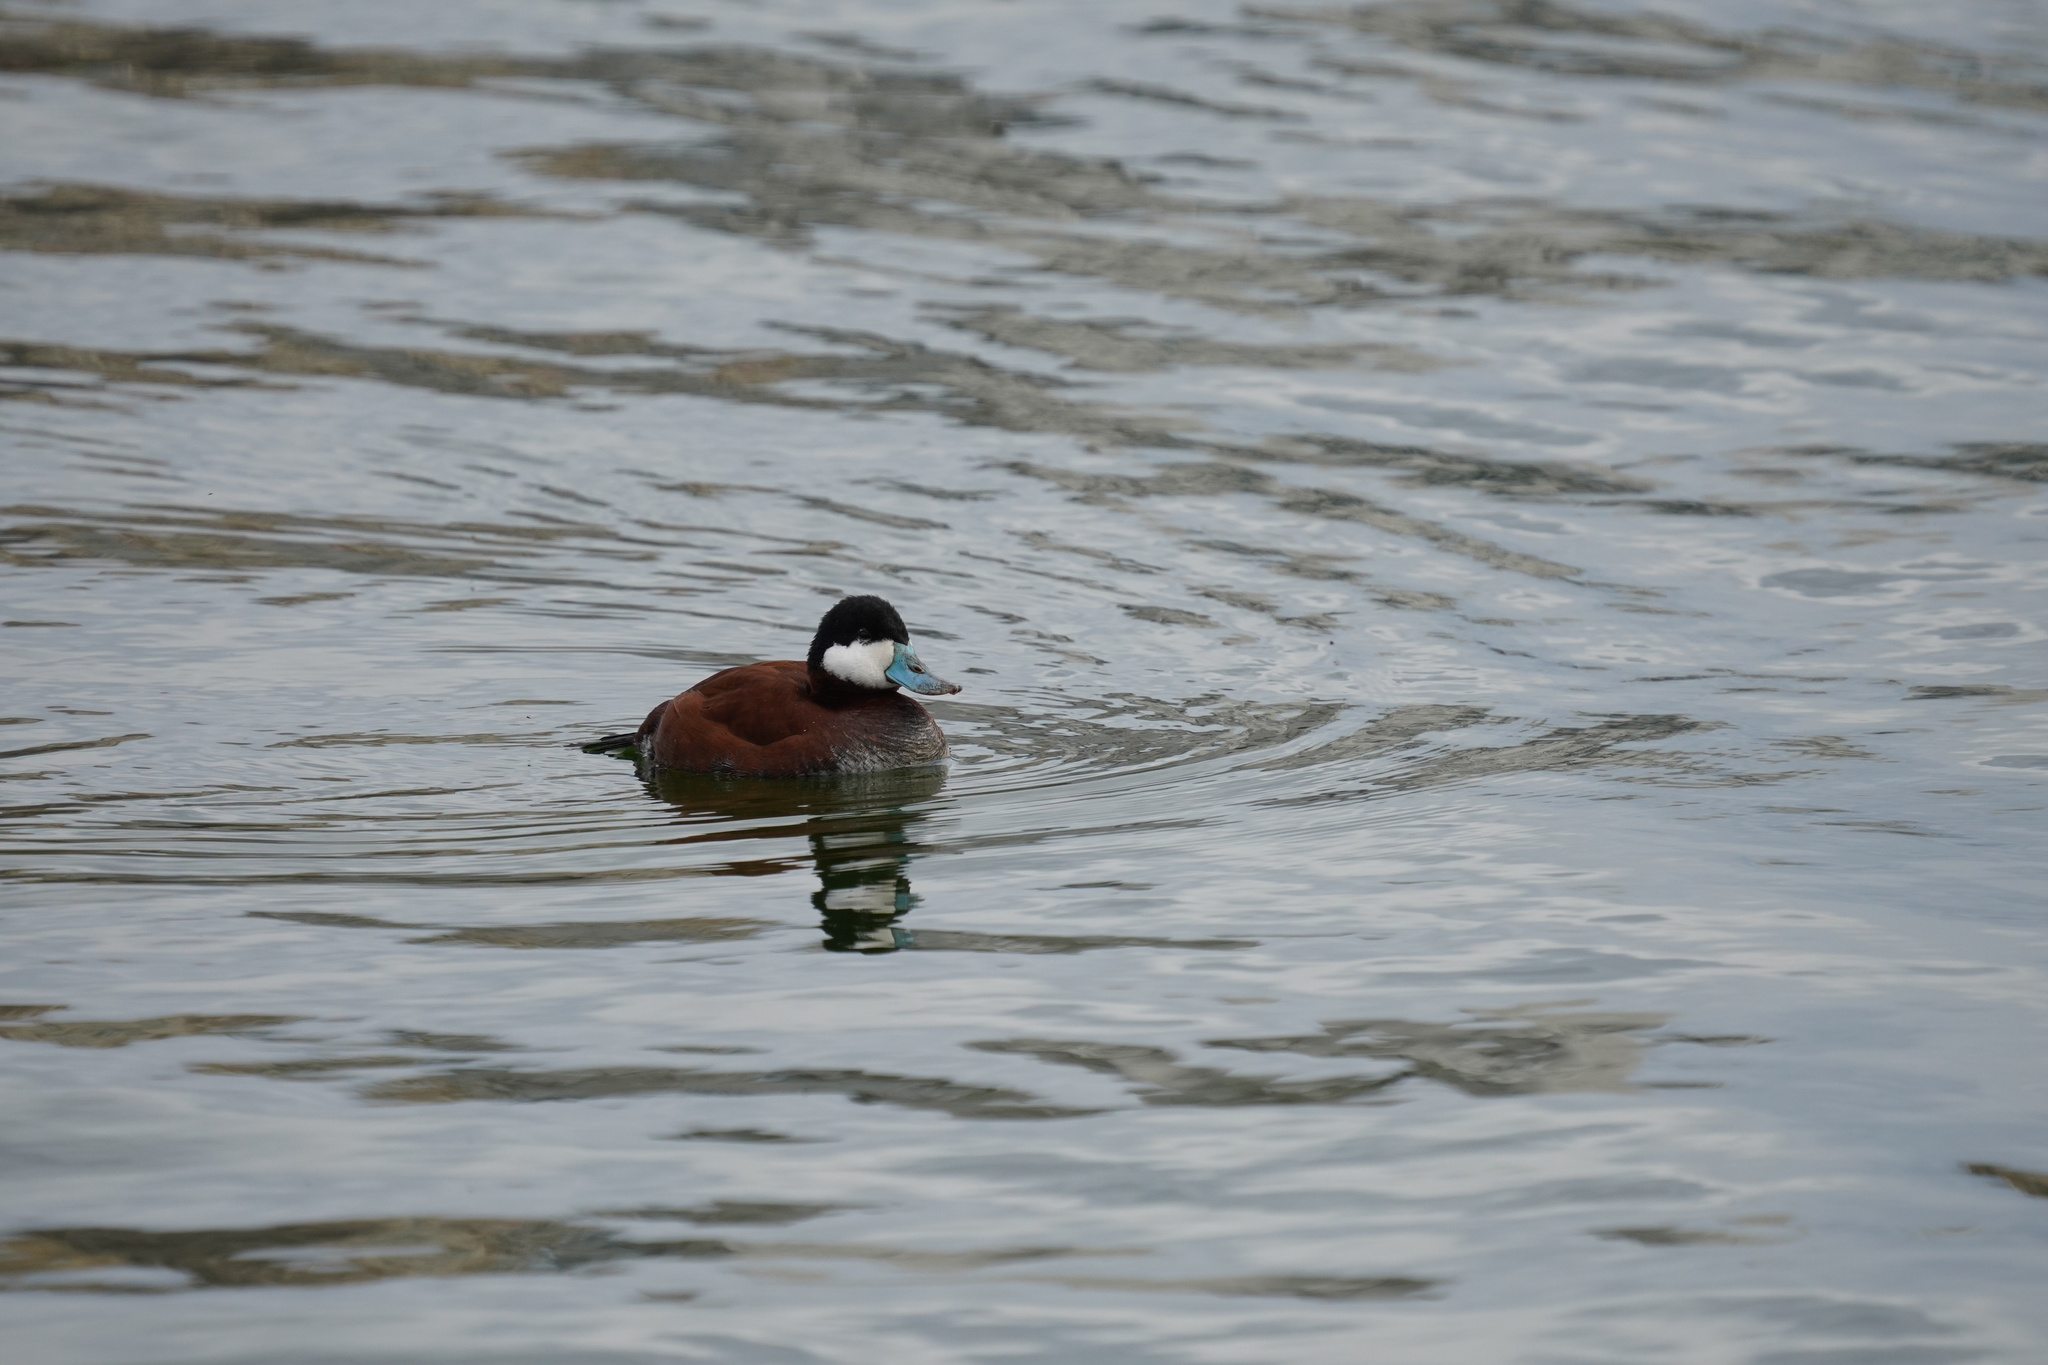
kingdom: Animalia
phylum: Chordata
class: Aves
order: Anseriformes
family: Anatidae
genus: Oxyura
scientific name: Oxyura jamaicensis
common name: Ruddy duck
